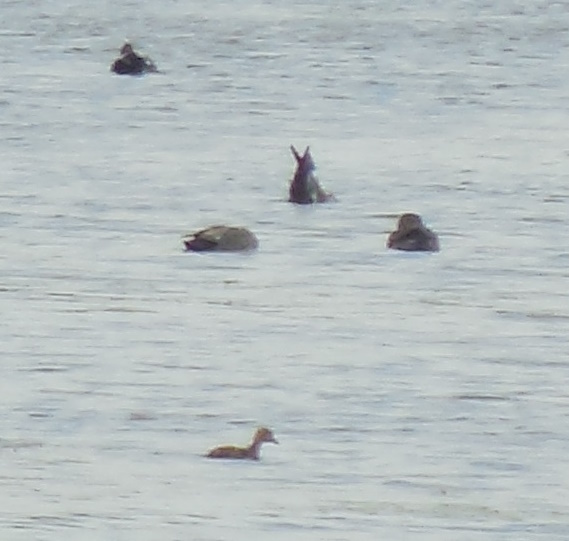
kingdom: Animalia
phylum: Chordata
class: Aves
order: Anseriformes
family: Anatidae
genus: Mareca
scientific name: Mareca strepera
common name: Gadwall
